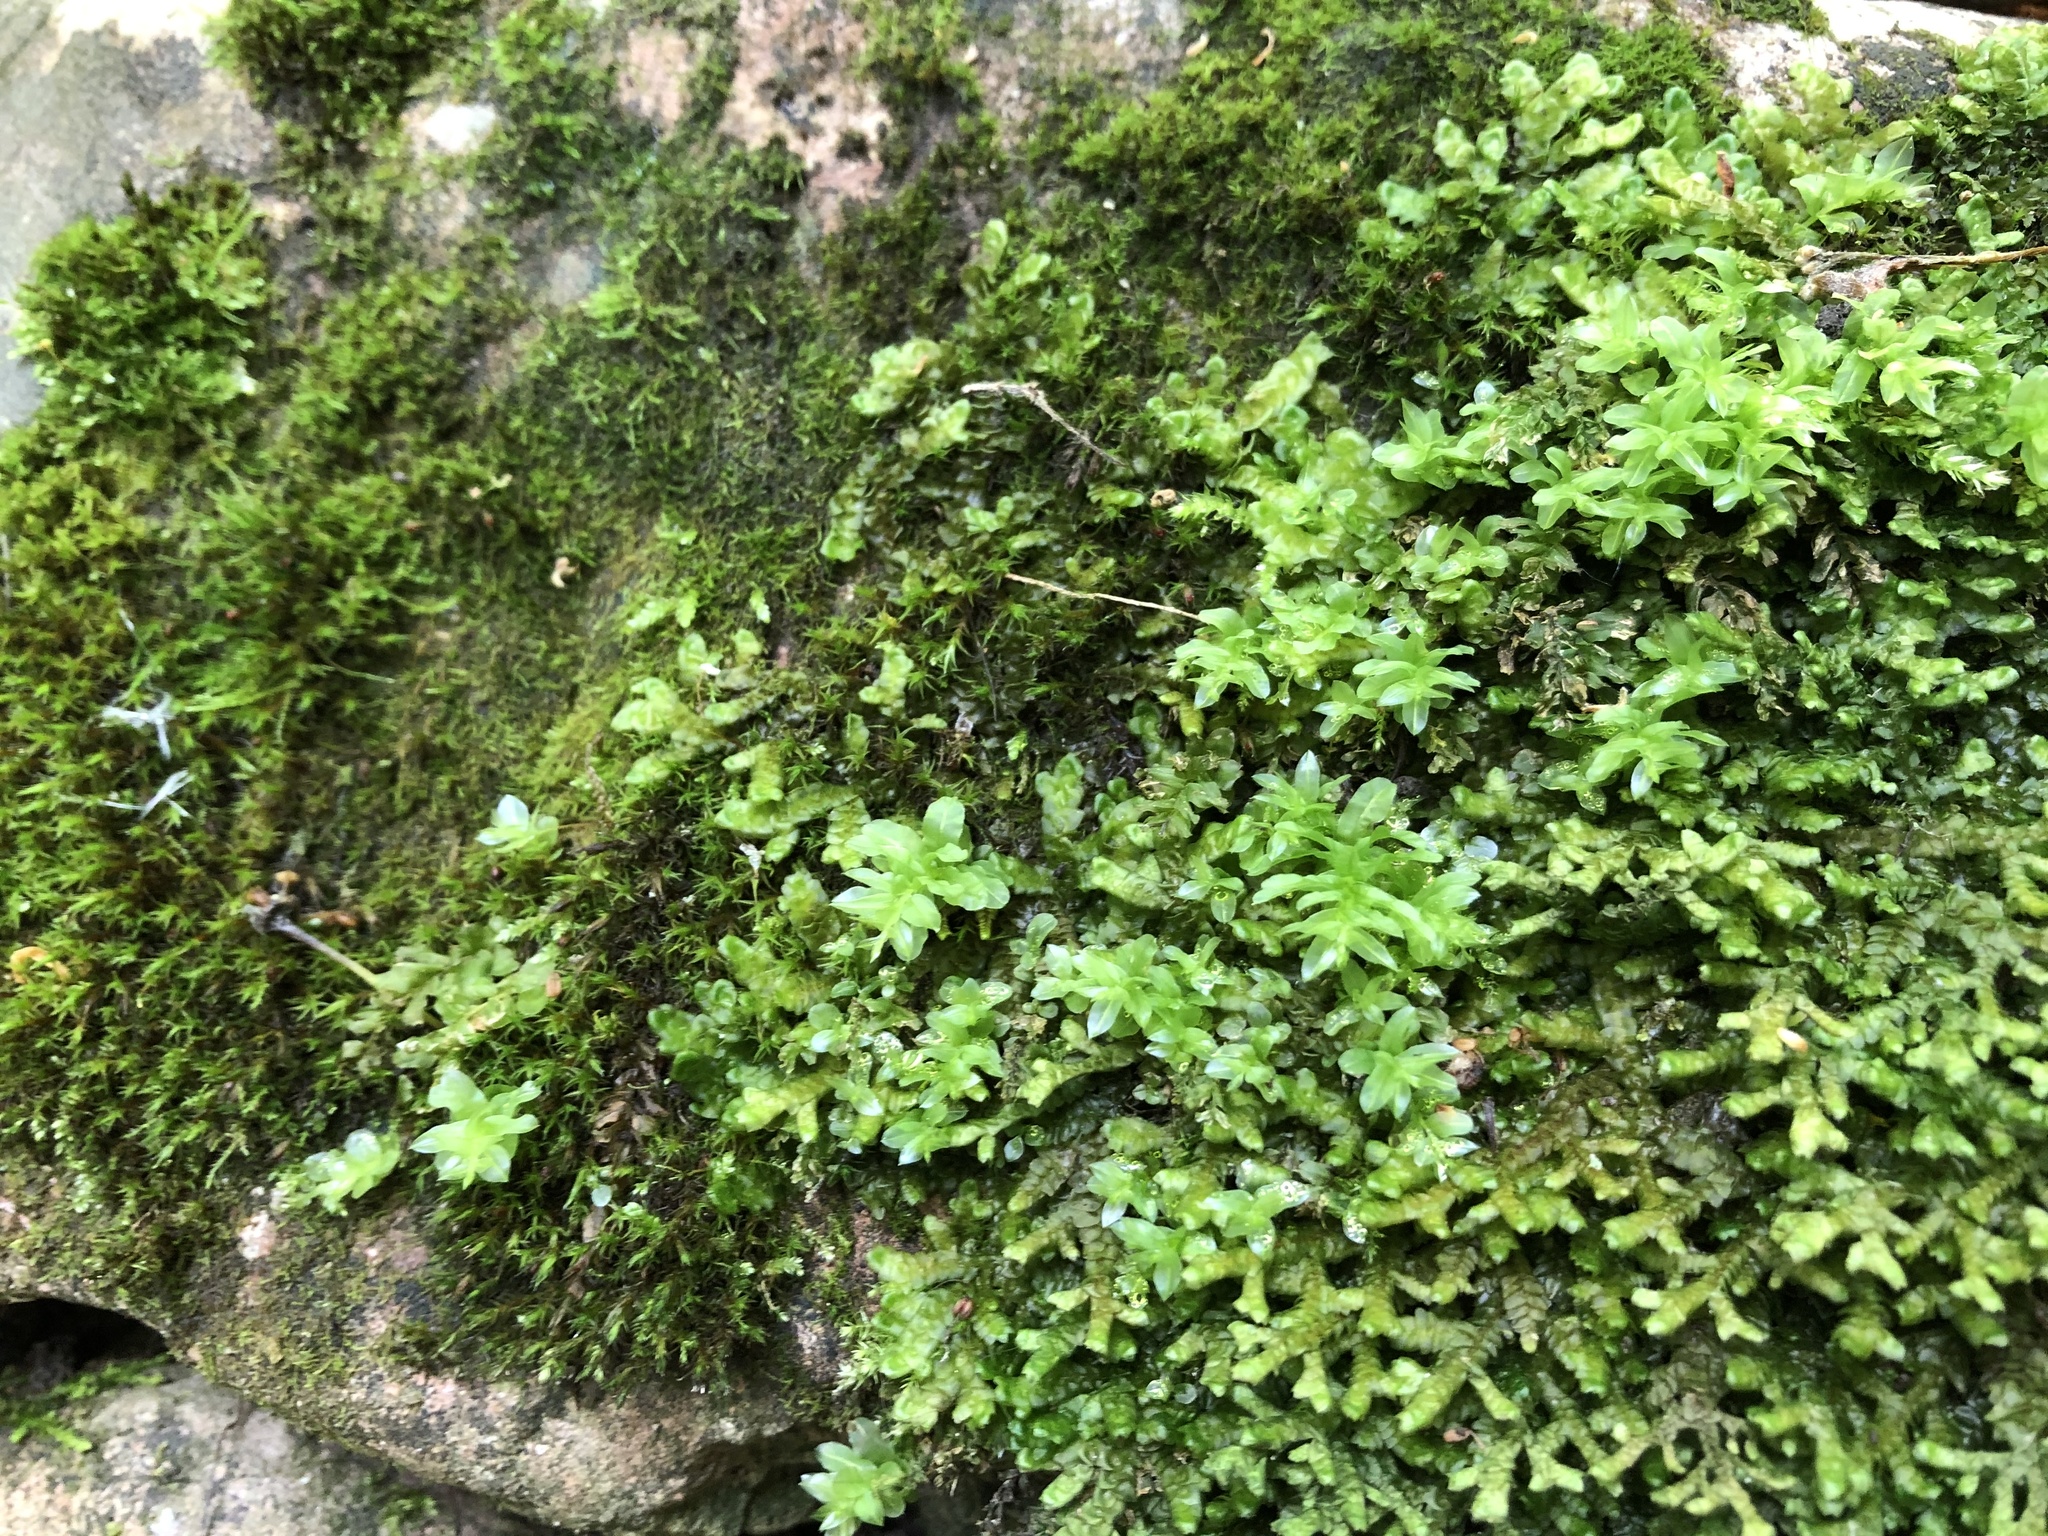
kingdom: Plantae
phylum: Bryophyta
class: Bryopsida
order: Bryales
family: Mniaceae
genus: Plagiomnium
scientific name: Plagiomnium undulatum
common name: Hart's-tongue thyme-moss
